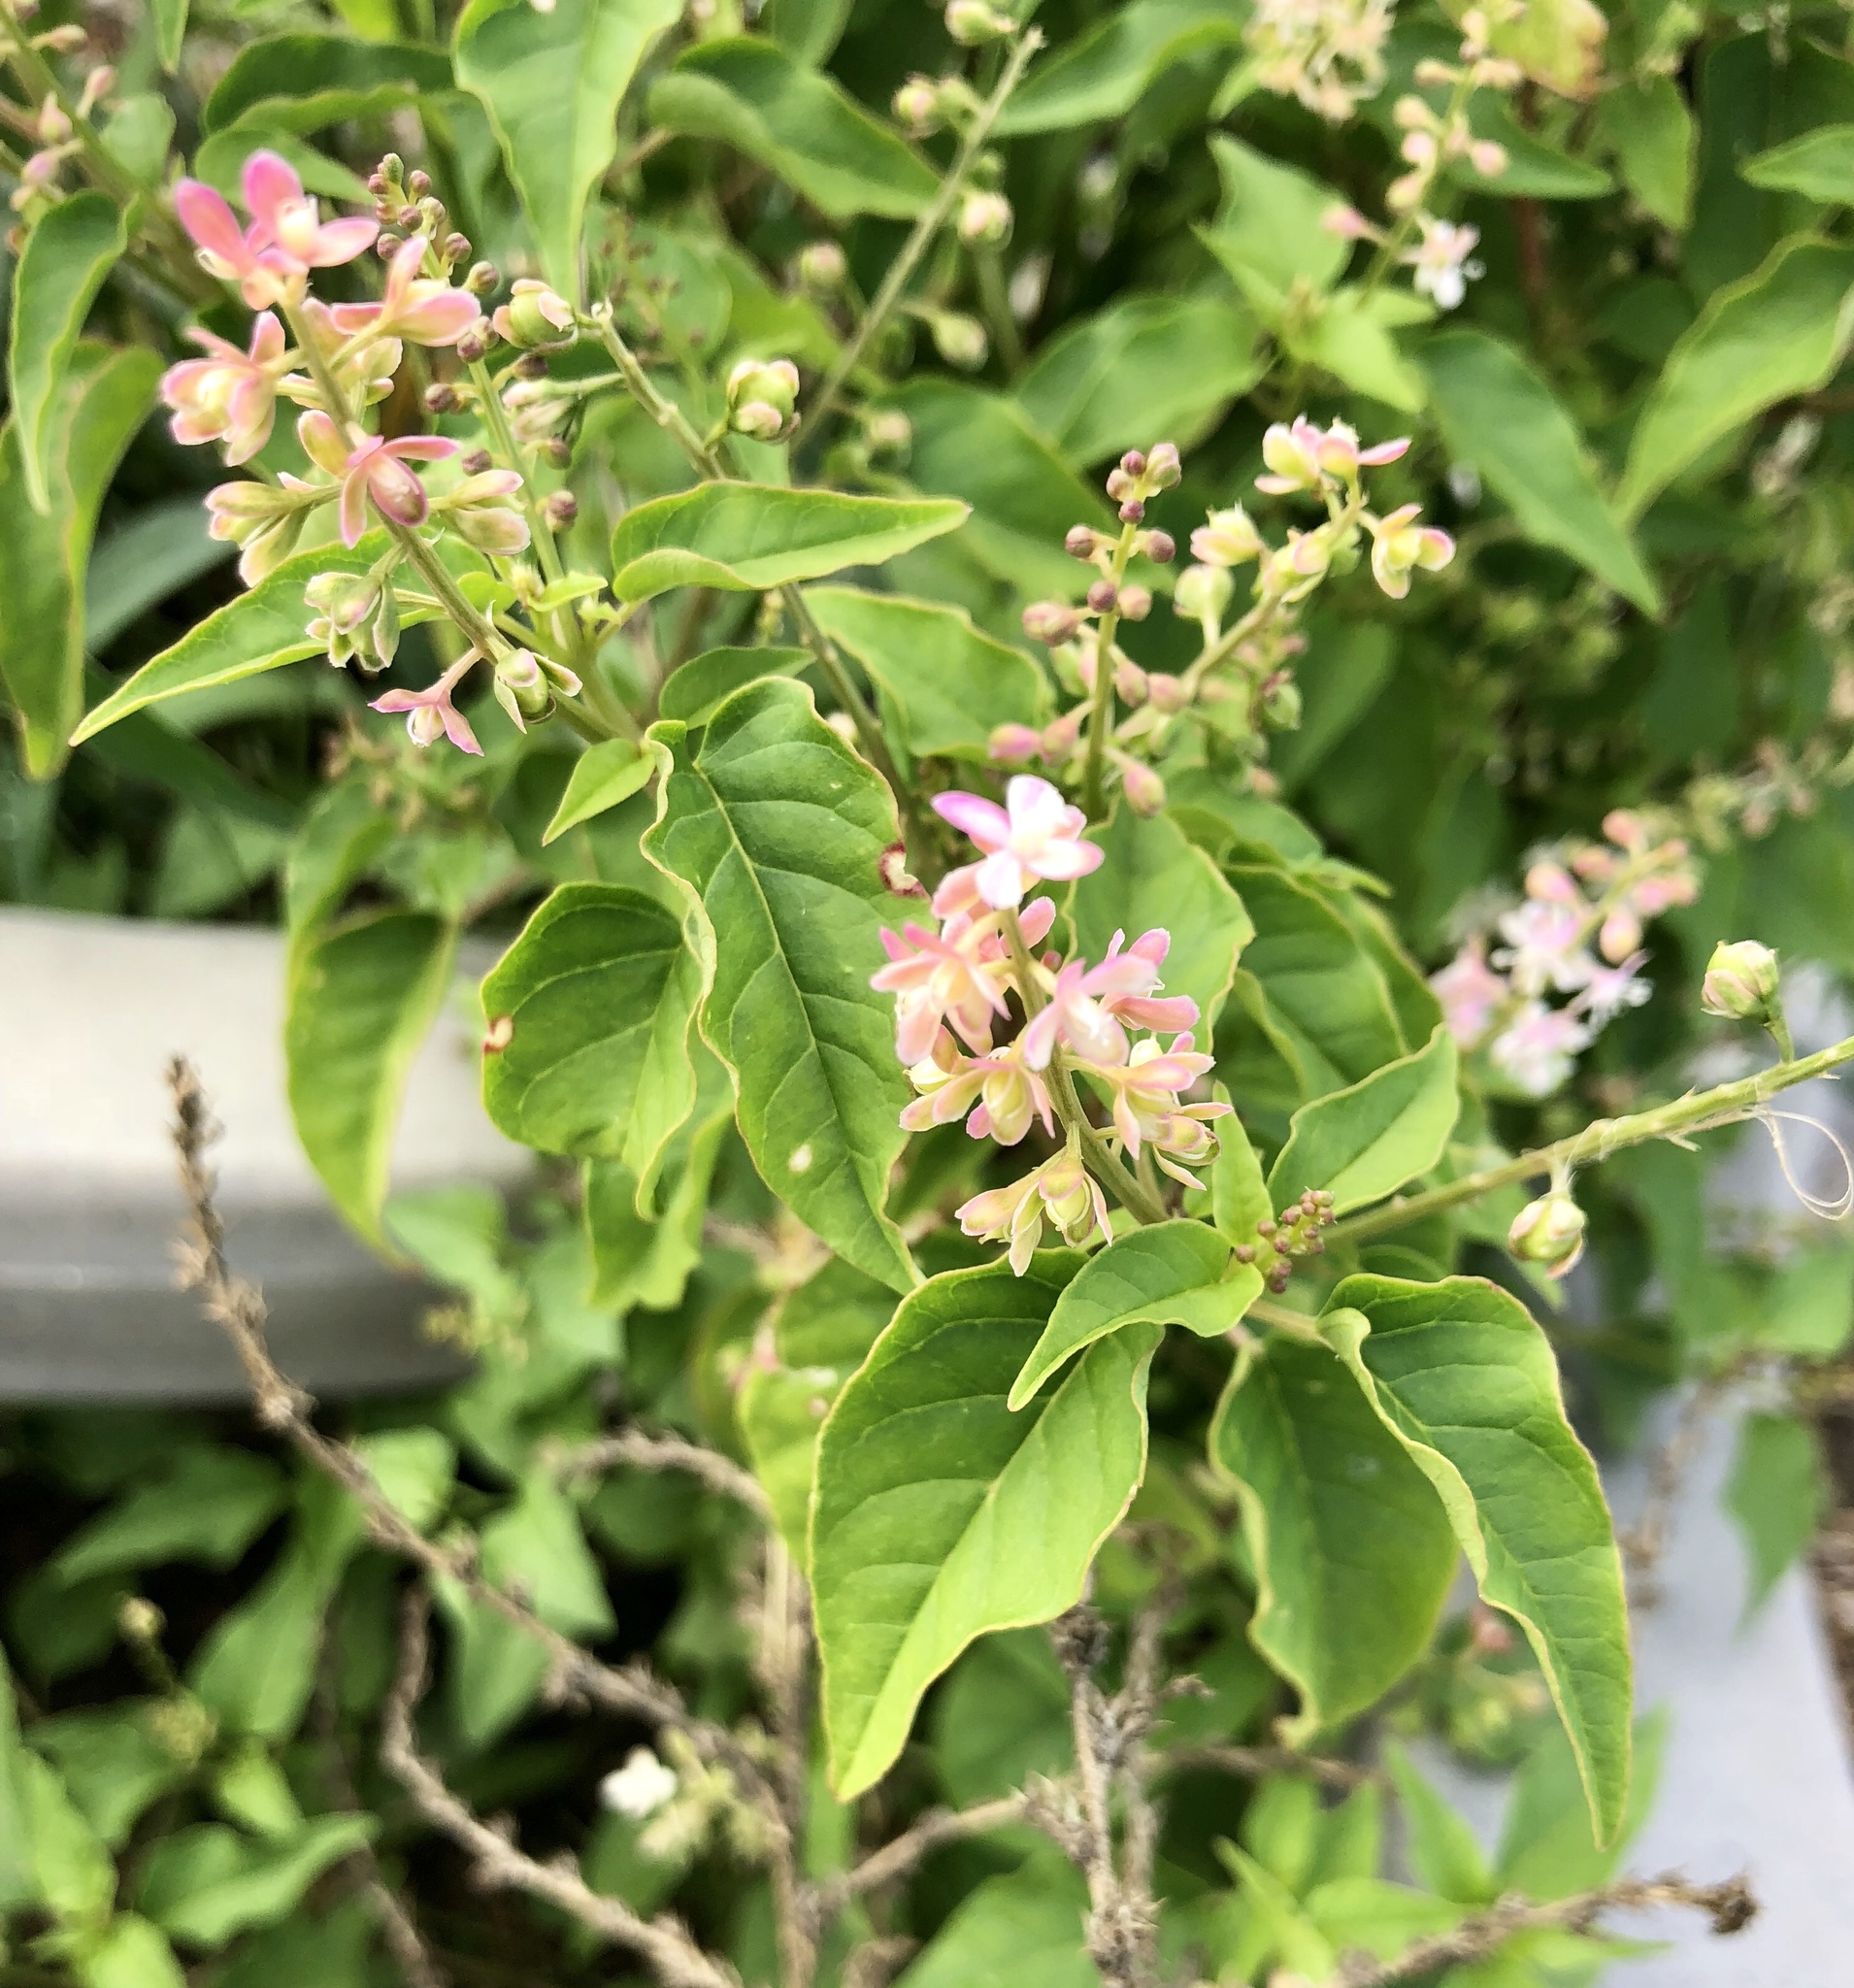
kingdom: Plantae
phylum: Tracheophyta
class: Magnoliopsida
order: Caryophyllales
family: Phytolaccaceae
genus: Rivina
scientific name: Rivina humilis
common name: Rougeplant
